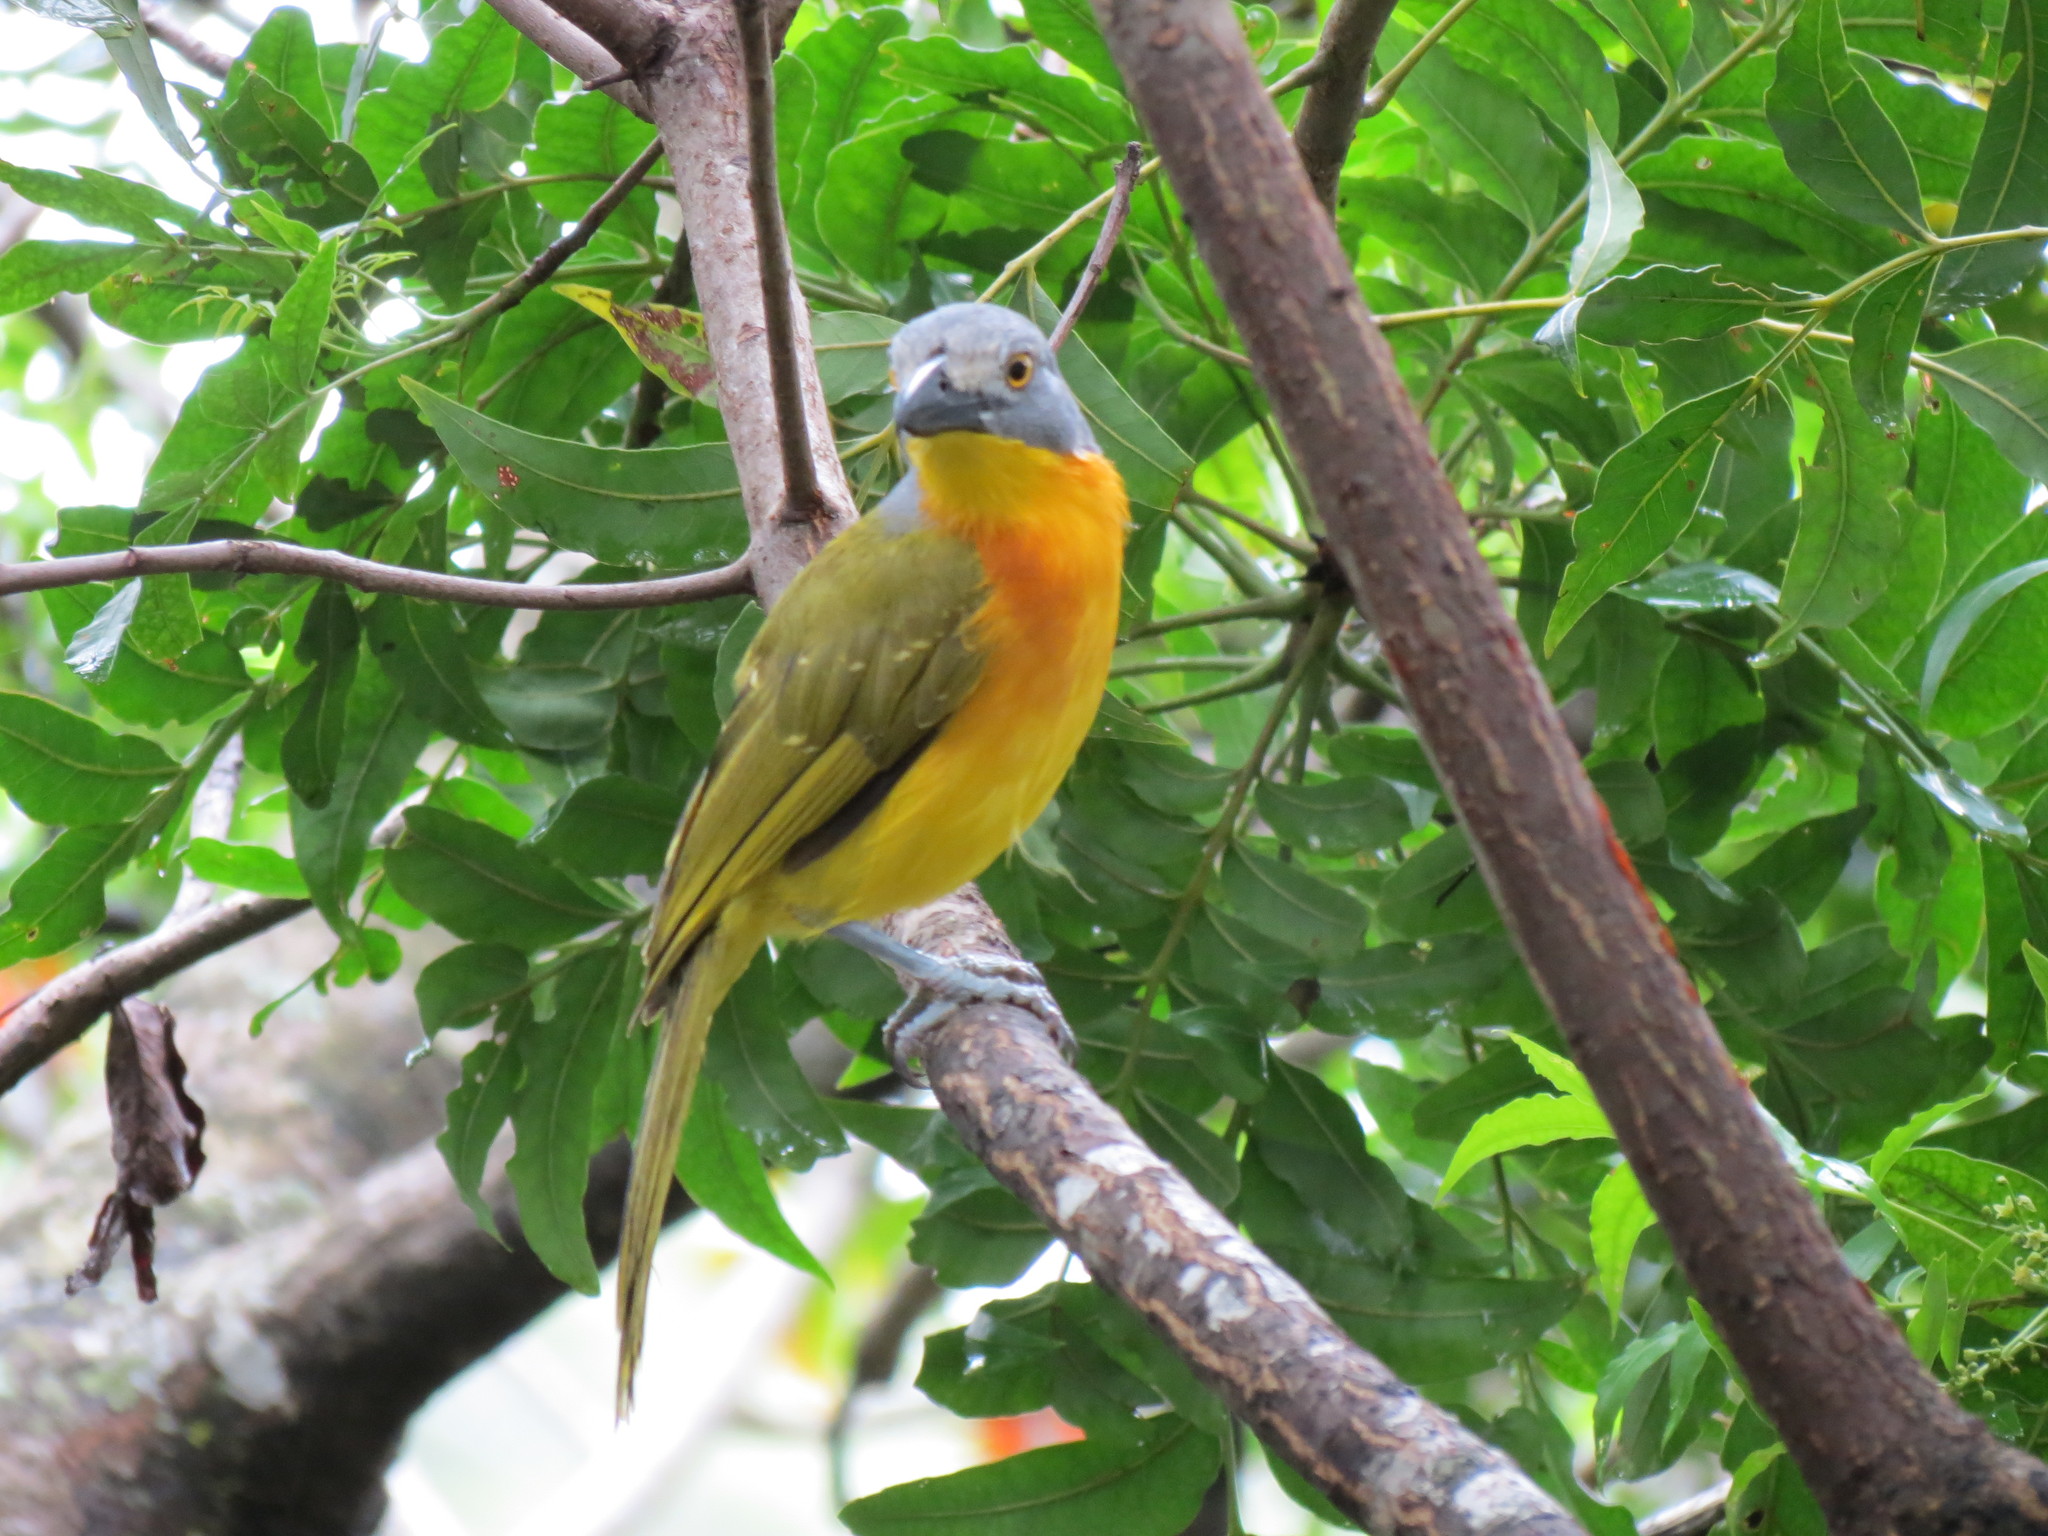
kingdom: Animalia
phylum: Chordata
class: Aves
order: Passeriformes
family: Malaconotidae
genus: Malaconotus
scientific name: Malaconotus blanchoti
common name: Grey-headed bushshrike
